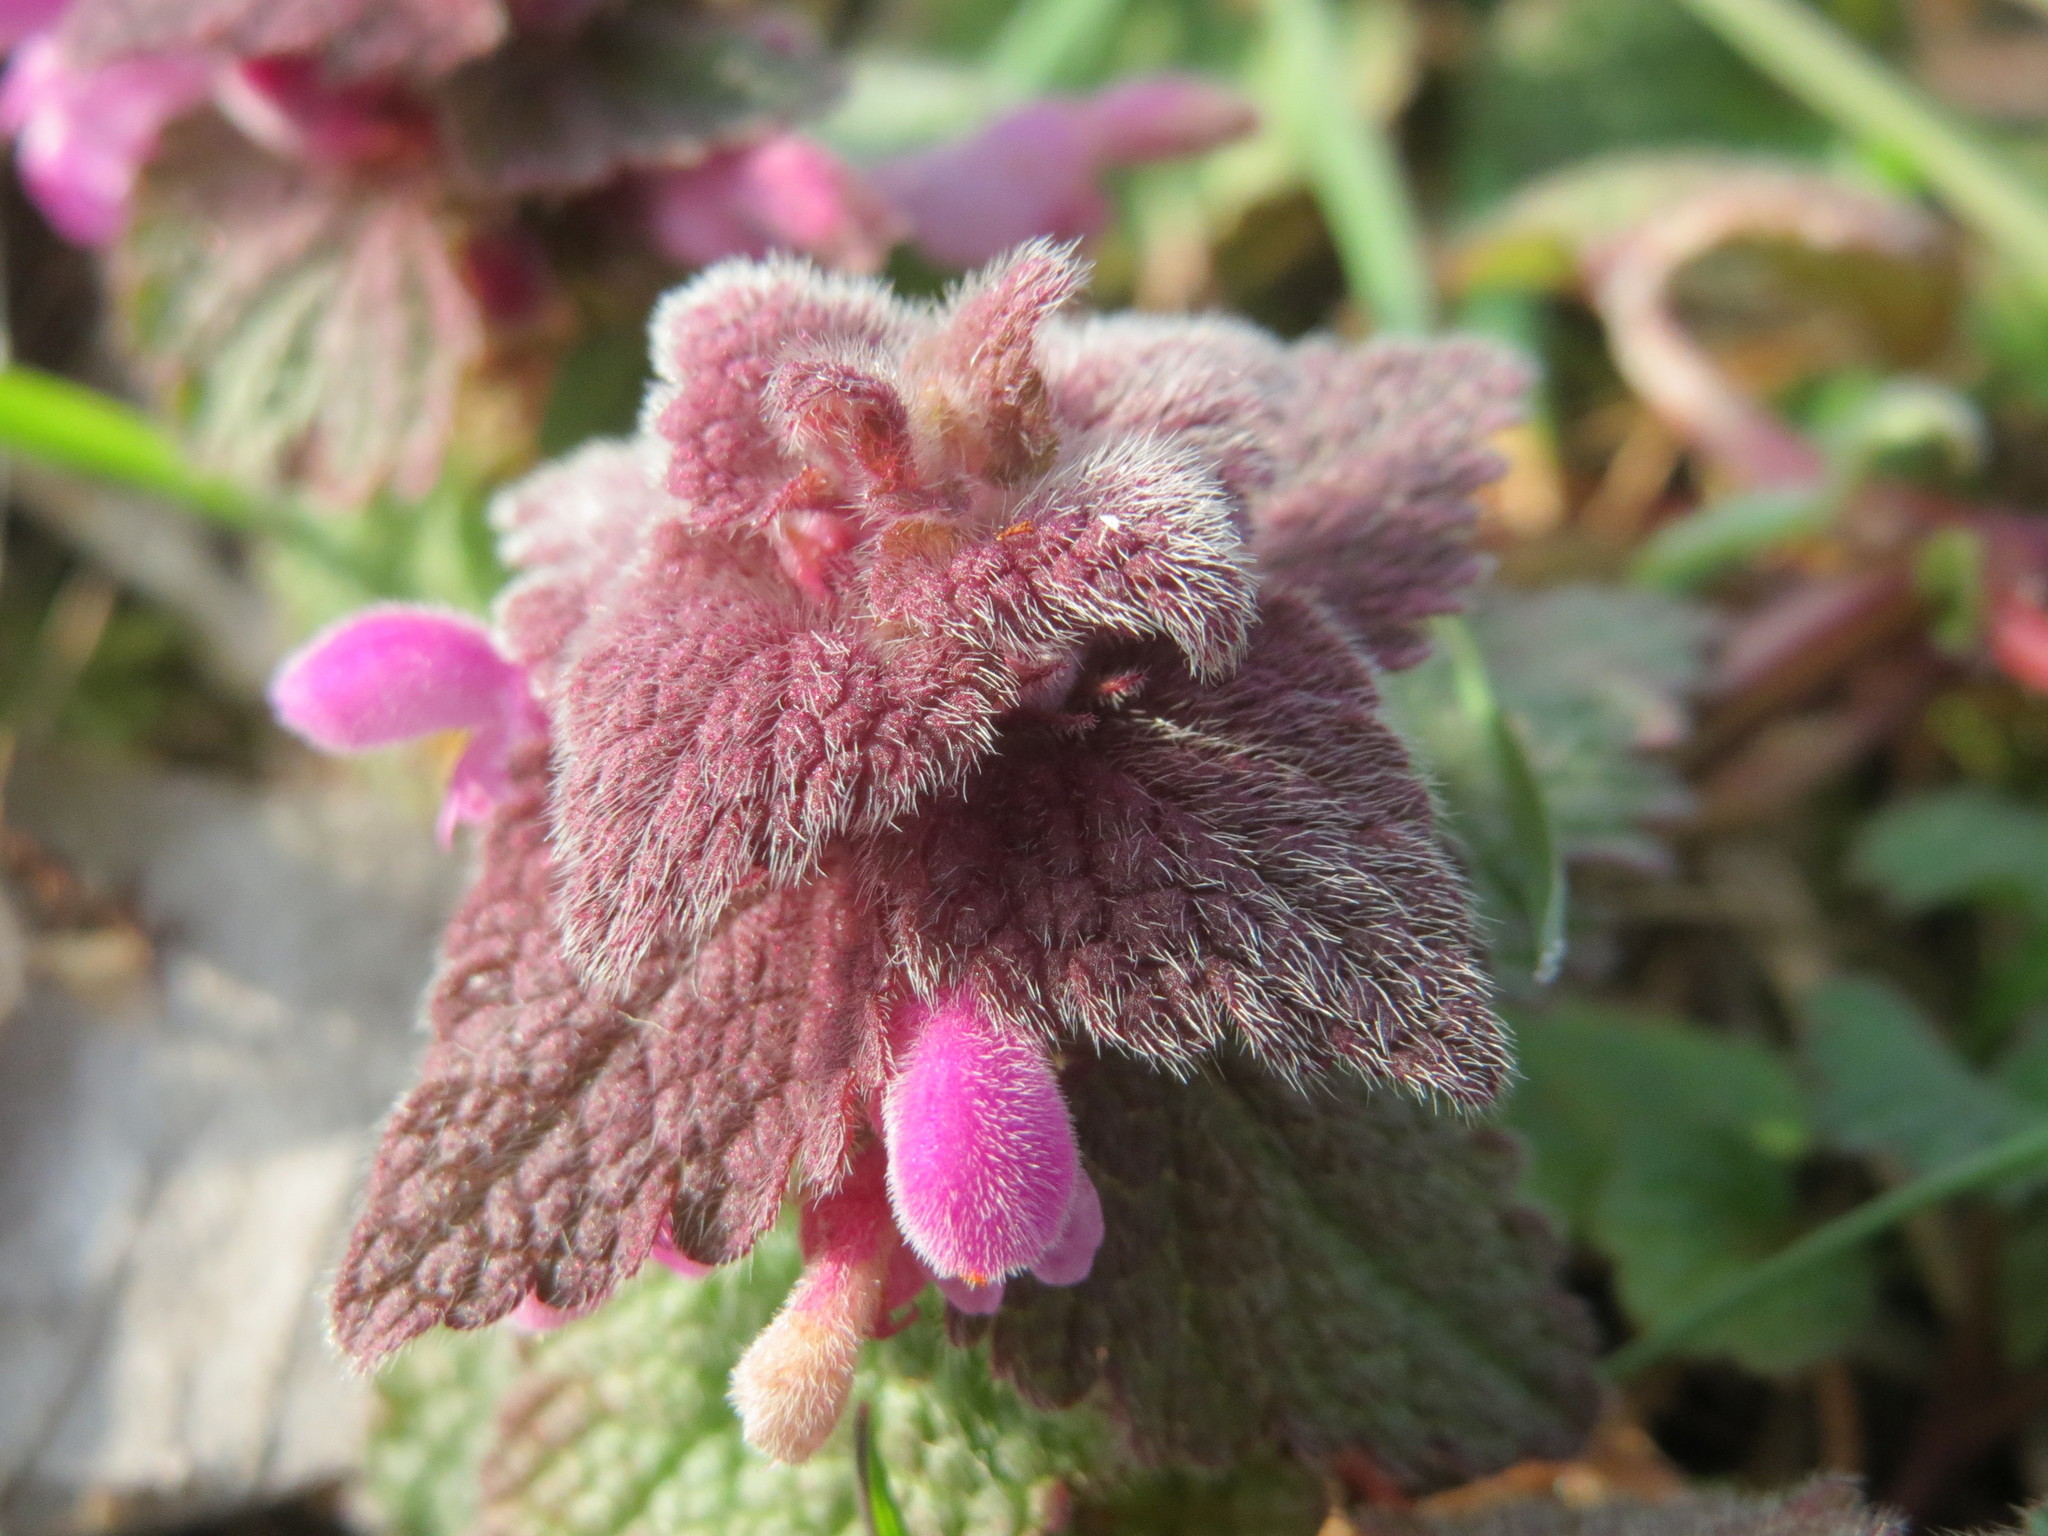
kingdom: Plantae
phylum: Tracheophyta
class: Magnoliopsida
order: Lamiales
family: Lamiaceae
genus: Lamium
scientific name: Lamium purpureum
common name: Red dead-nettle
